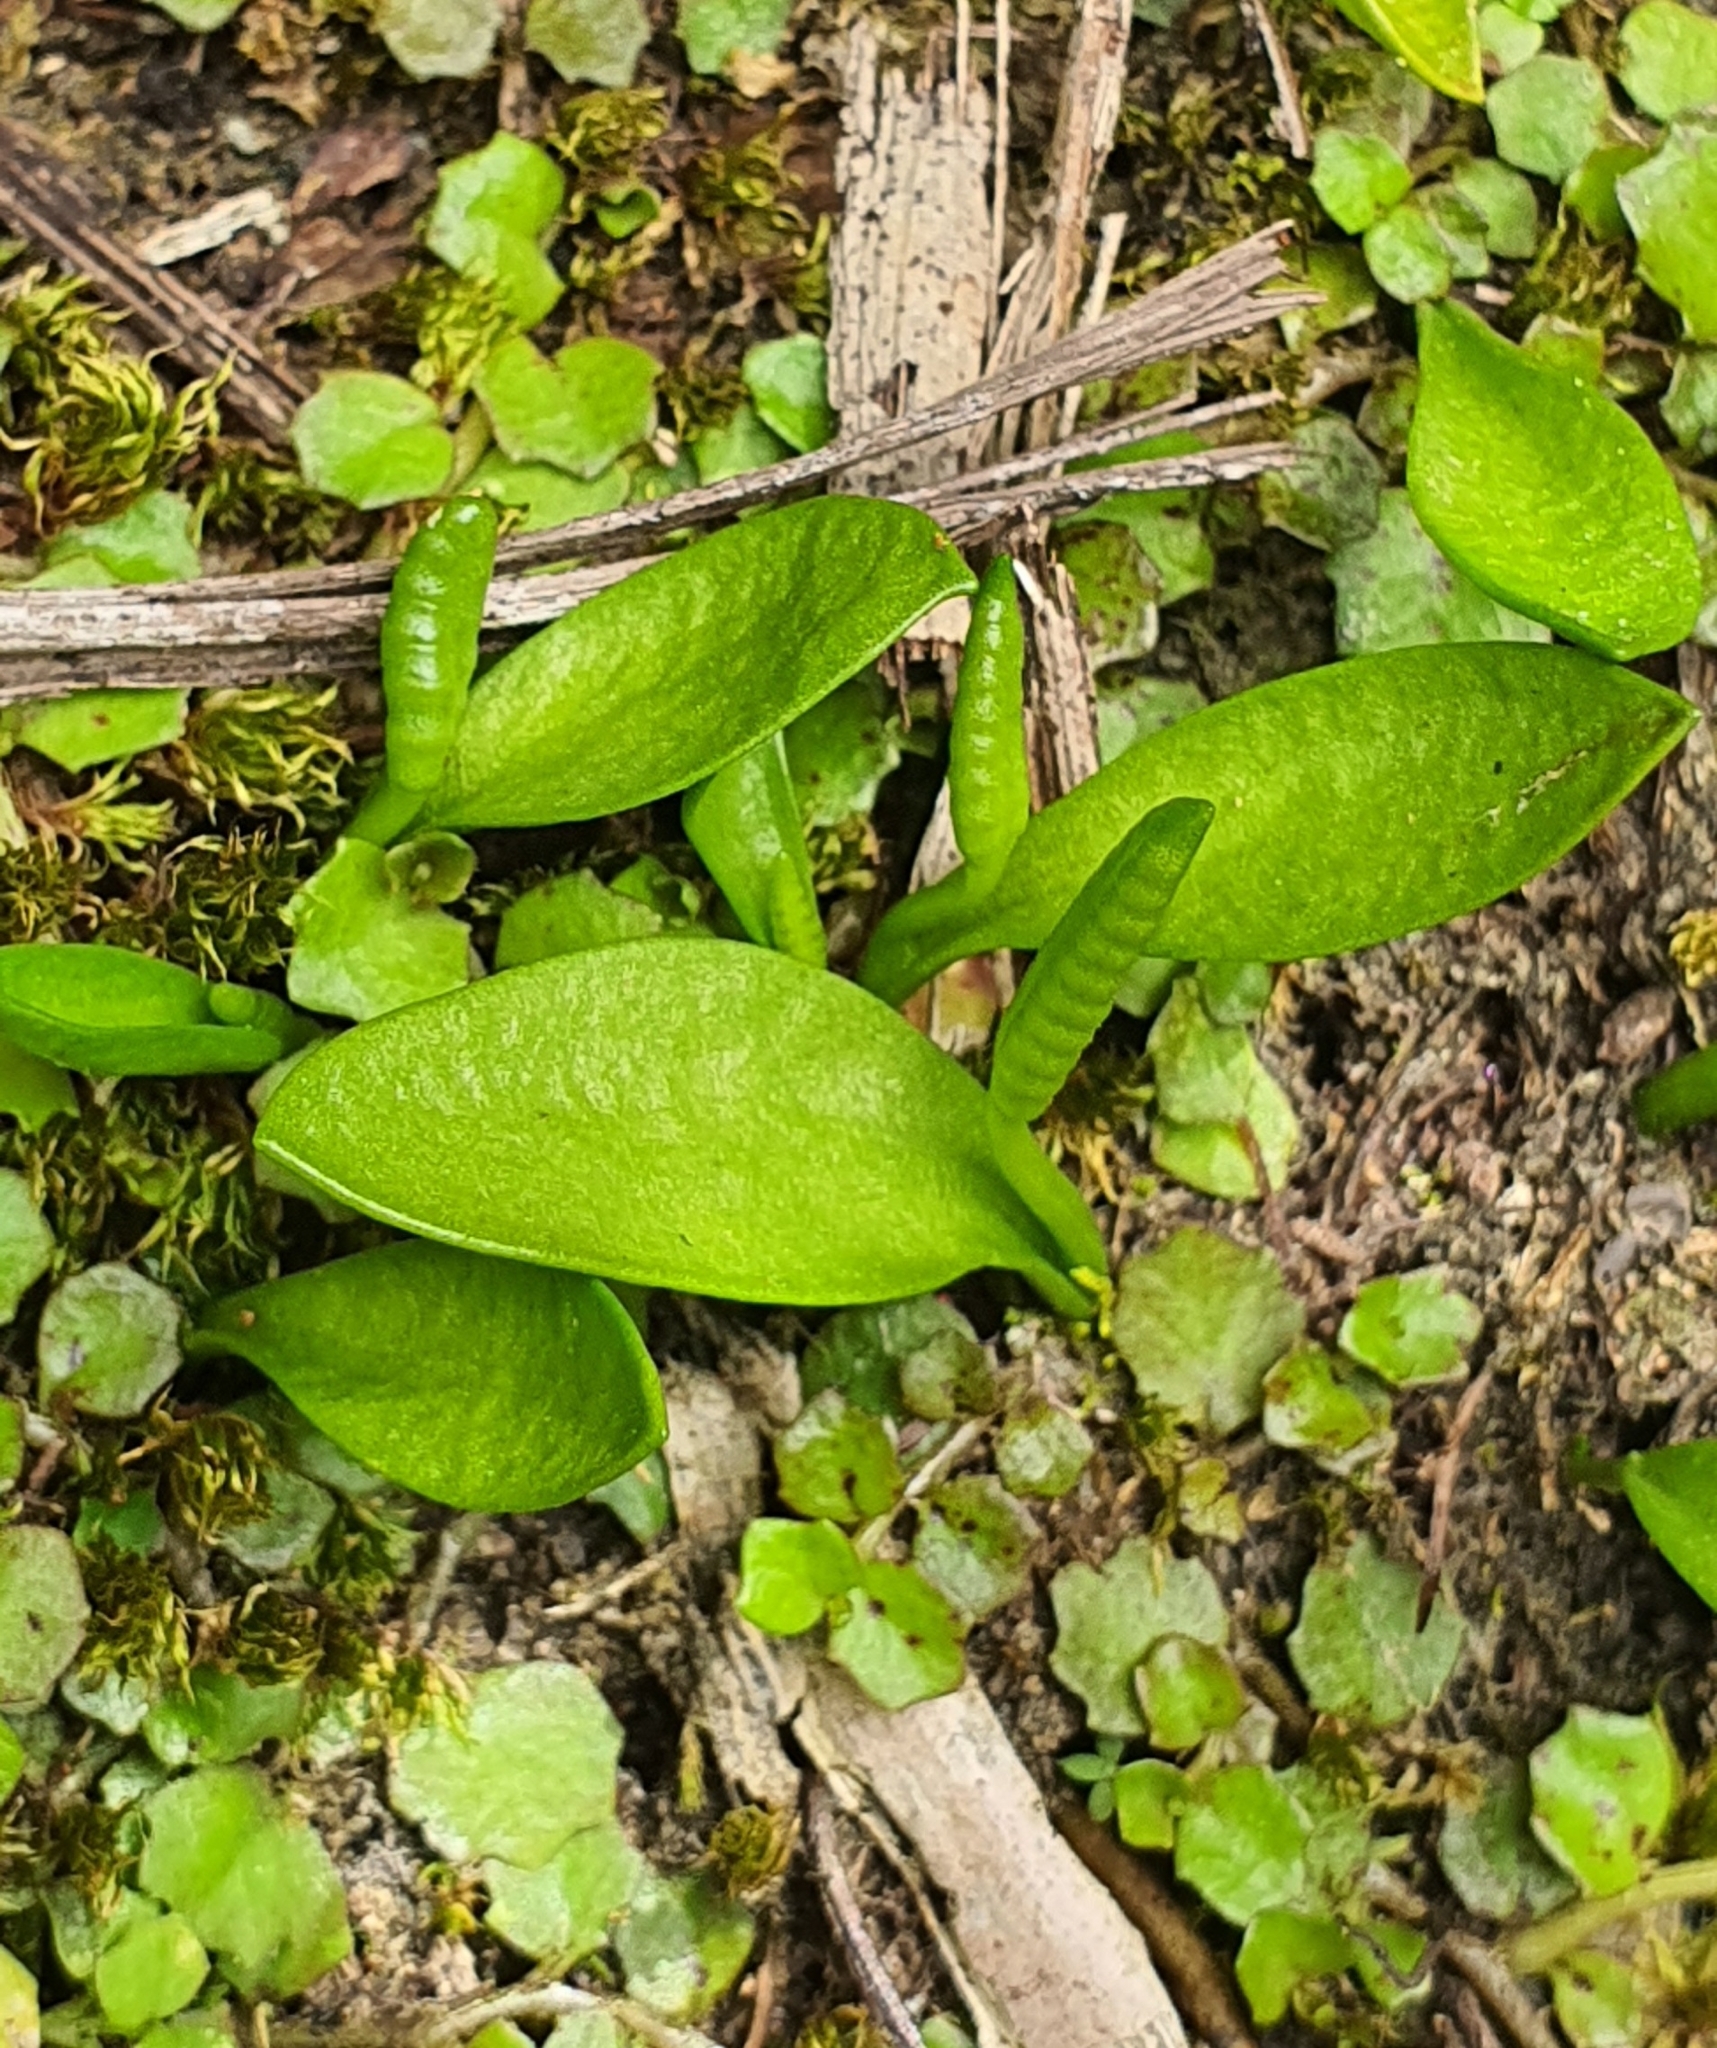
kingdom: Plantae
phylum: Tracheophyta
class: Polypodiopsida
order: Ophioglossales
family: Ophioglossaceae
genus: Ophioglossum
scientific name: Ophioglossum coriaceum
